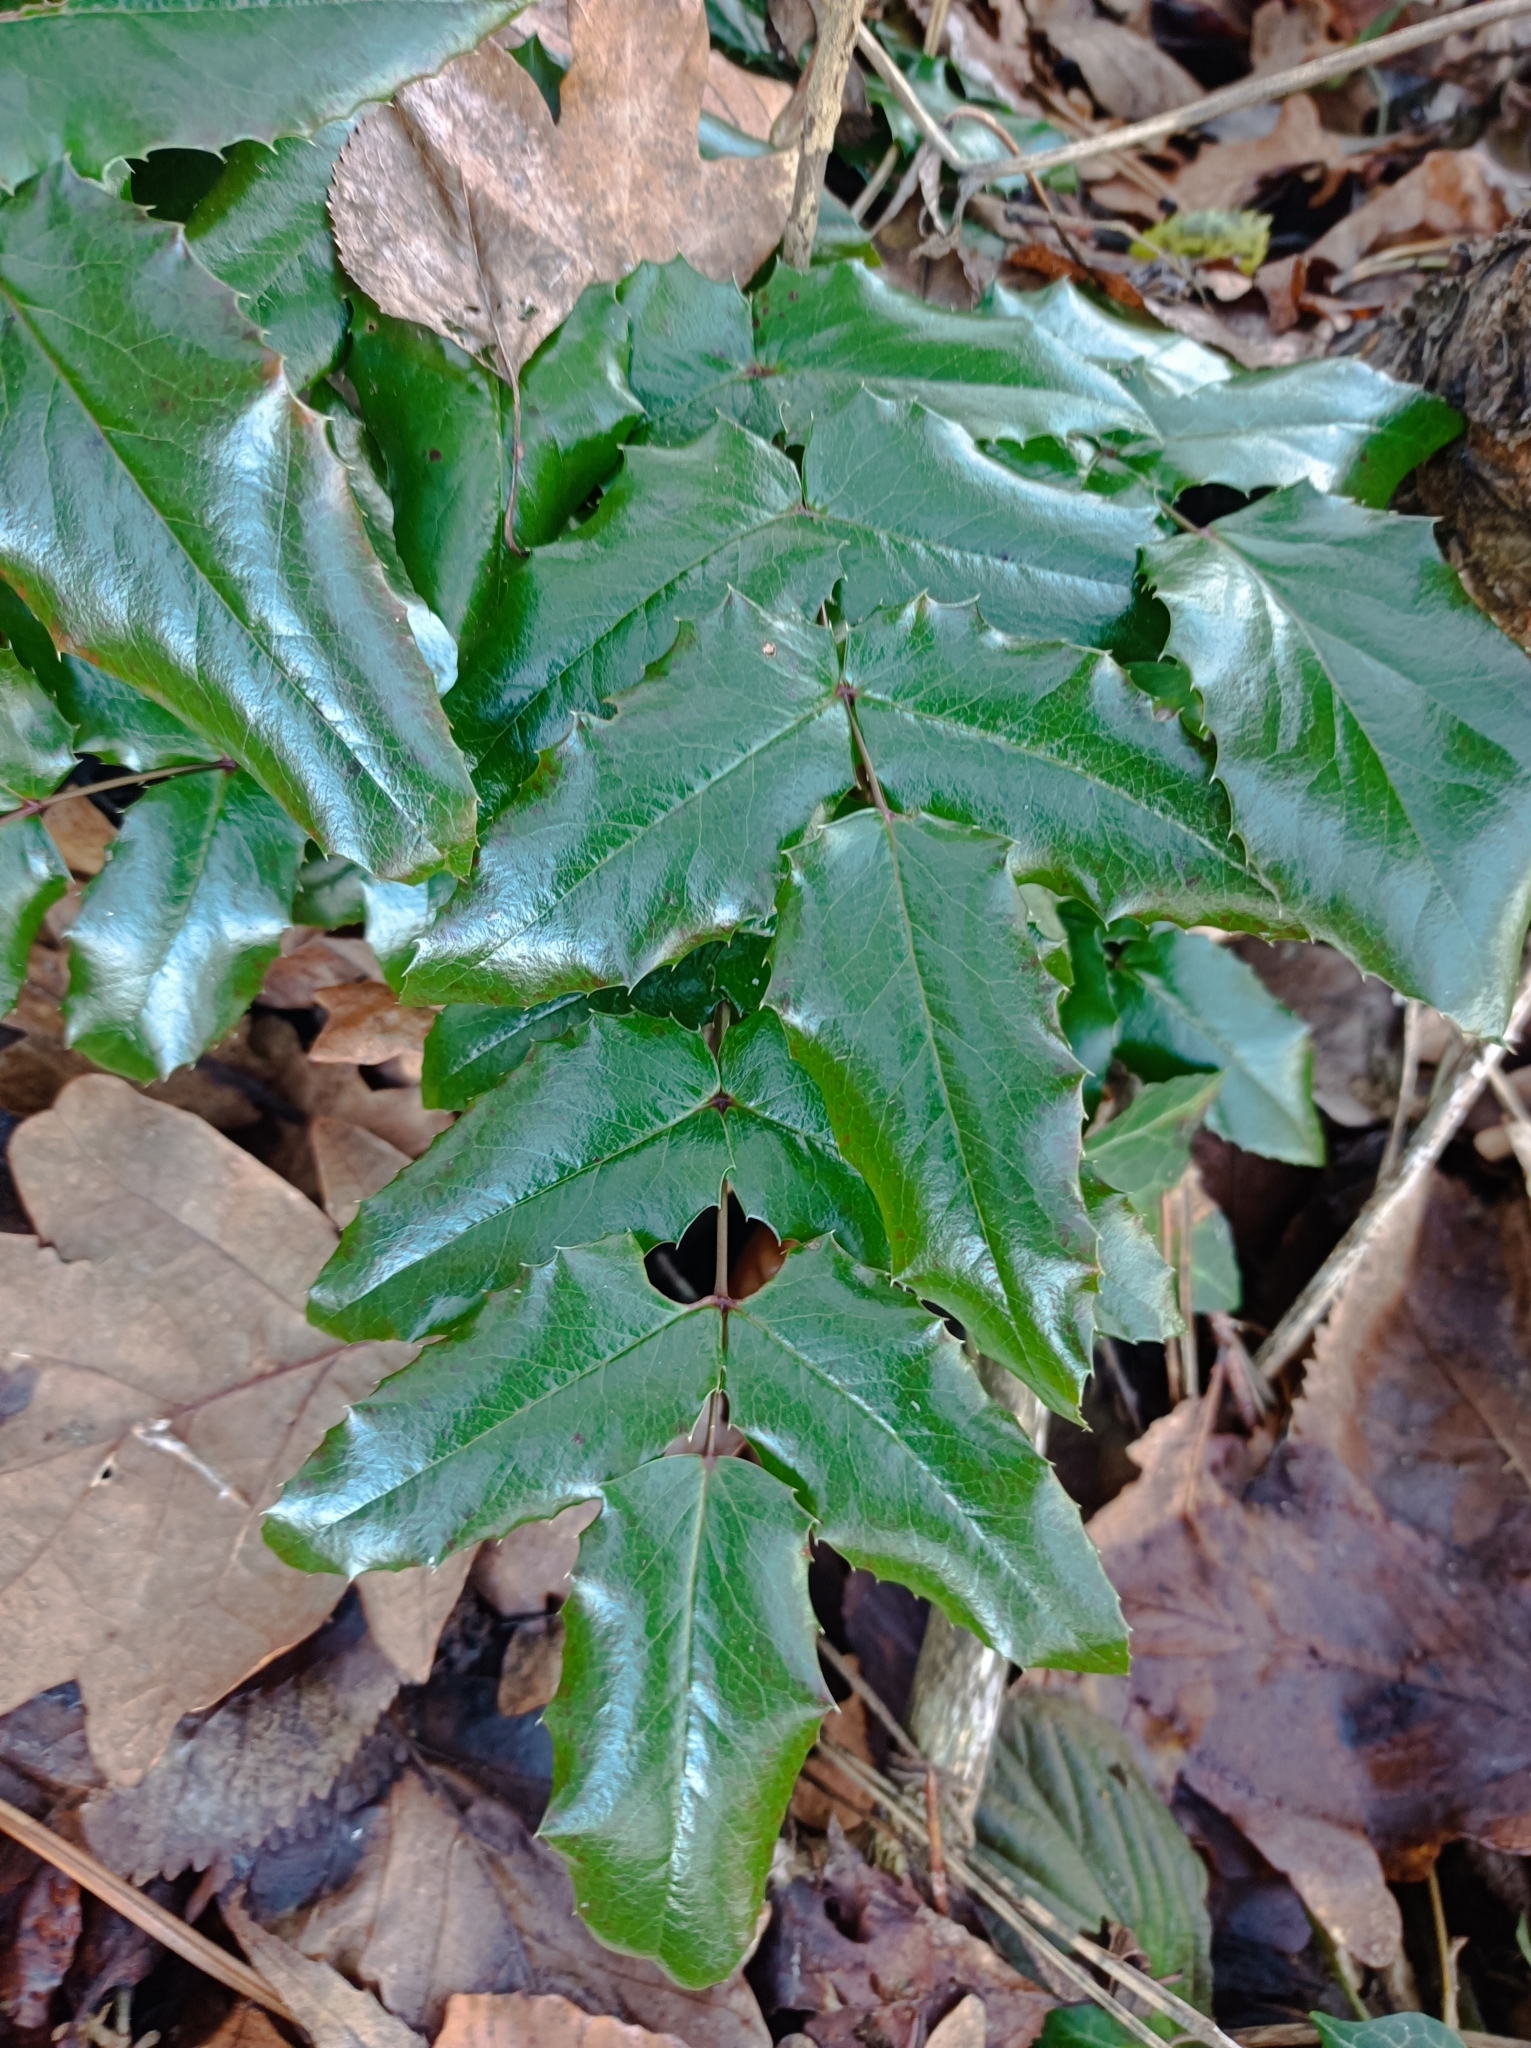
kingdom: Plantae
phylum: Tracheophyta
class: Magnoliopsida
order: Ranunculales
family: Berberidaceae
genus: Mahonia
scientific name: Mahonia aquifolium
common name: Oregon-grape
